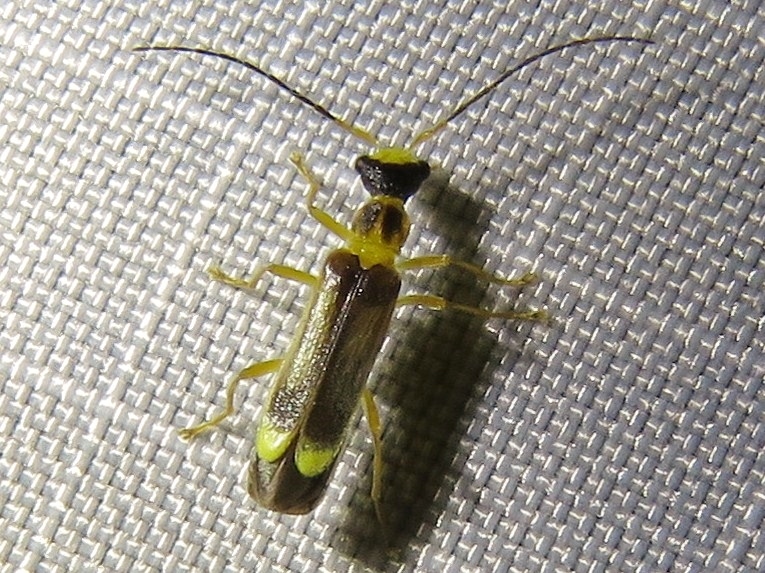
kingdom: Animalia
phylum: Arthropoda
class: Insecta
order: Coleoptera
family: Cantharidae
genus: Malthinus
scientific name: Malthinus flaveolus
